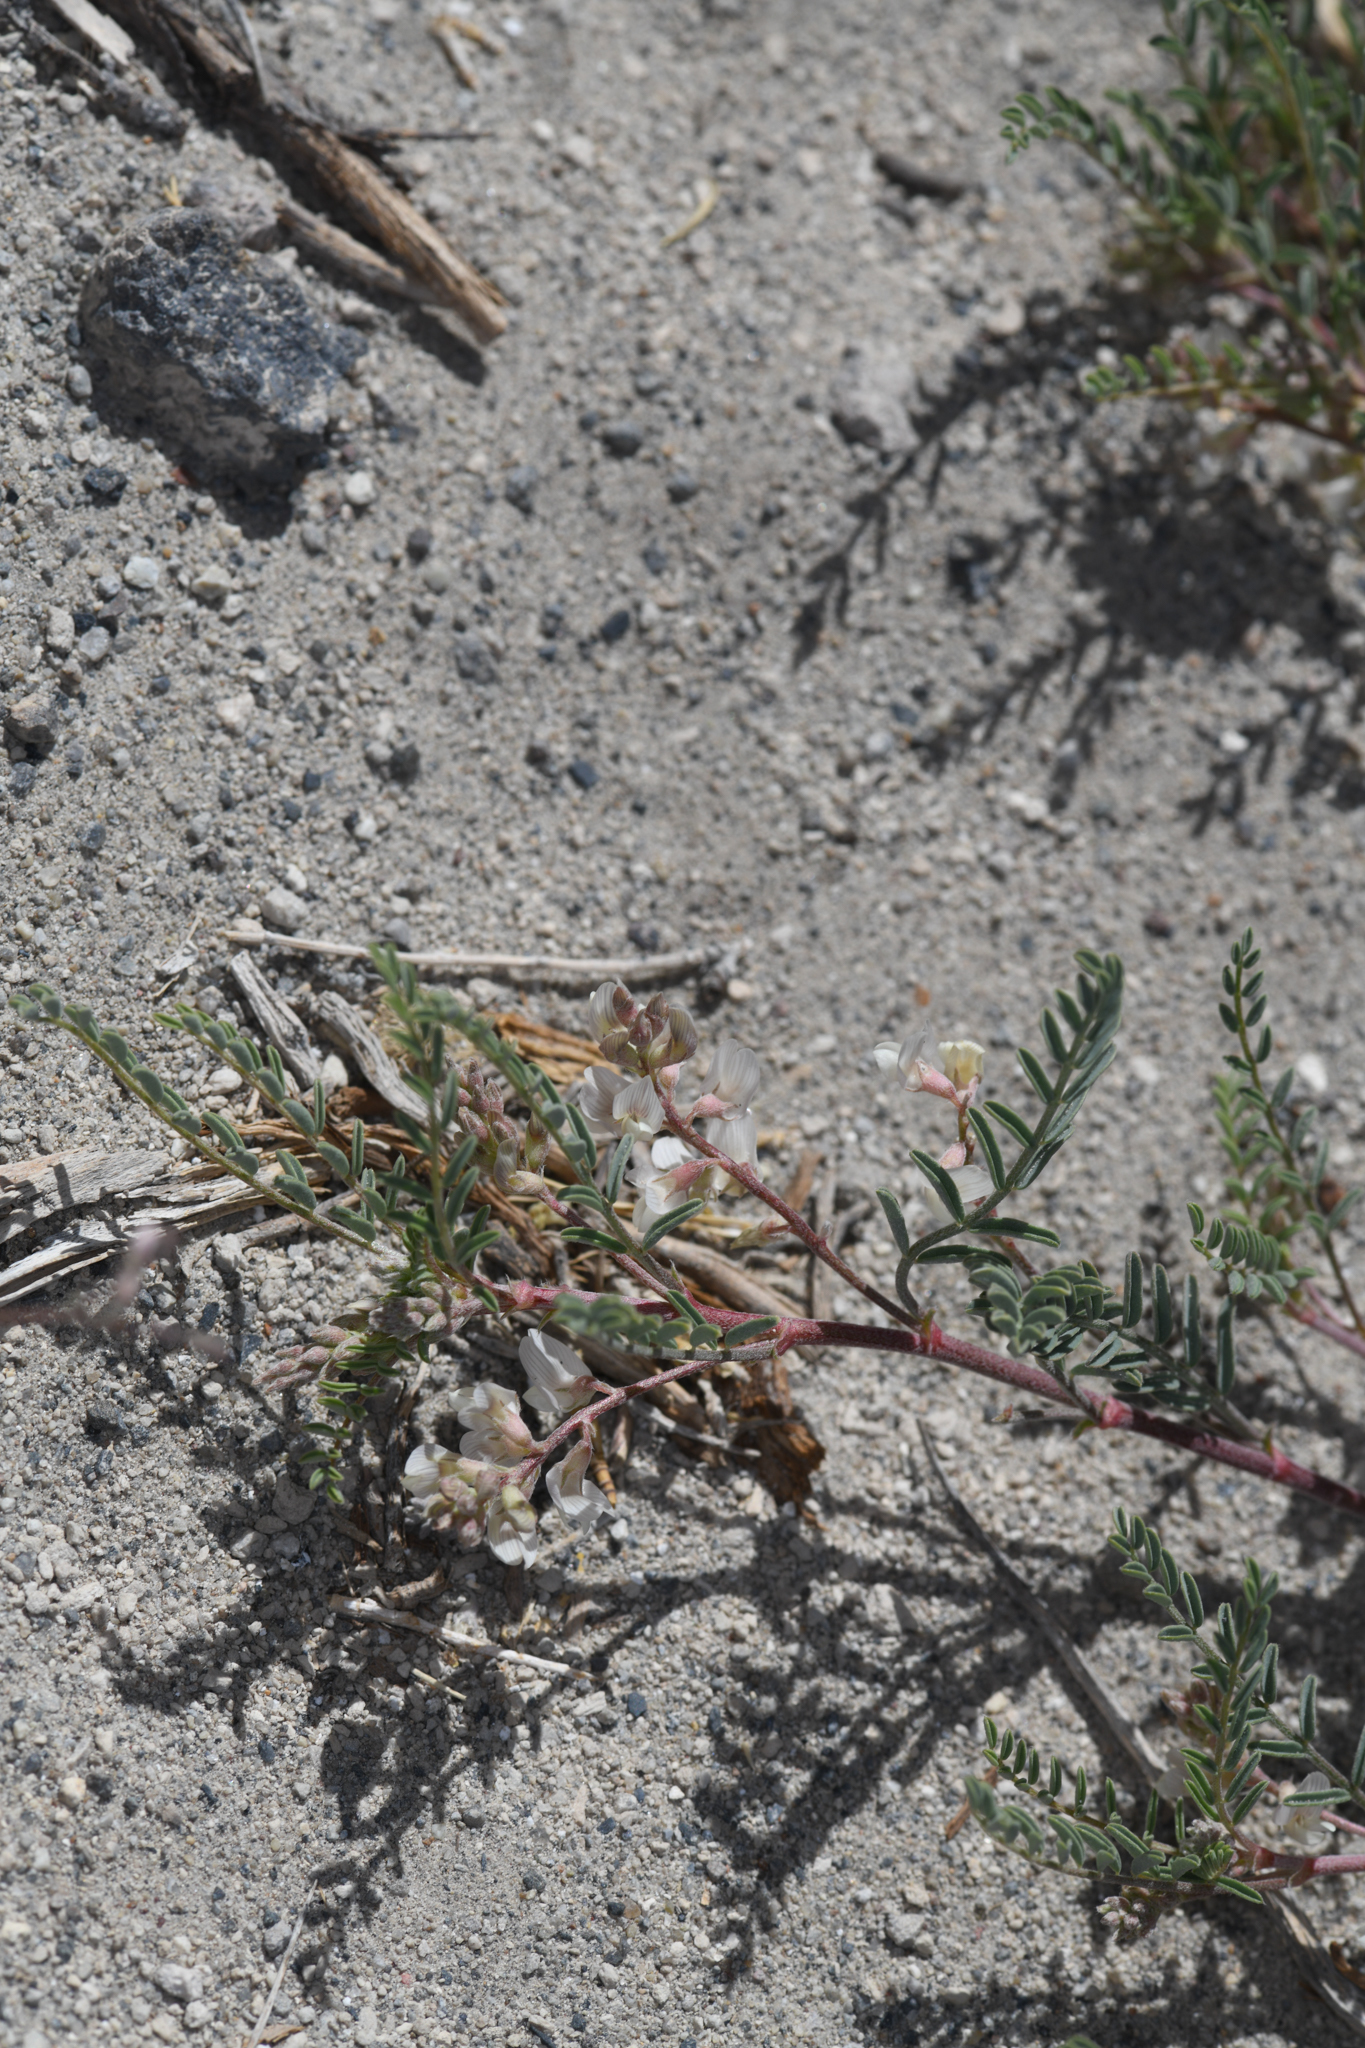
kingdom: Plantae
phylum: Tracheophyta
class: Magnoliopsida
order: Fabales
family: Fabaceae
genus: Astragalus
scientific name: Astragalus johannis-howellii
